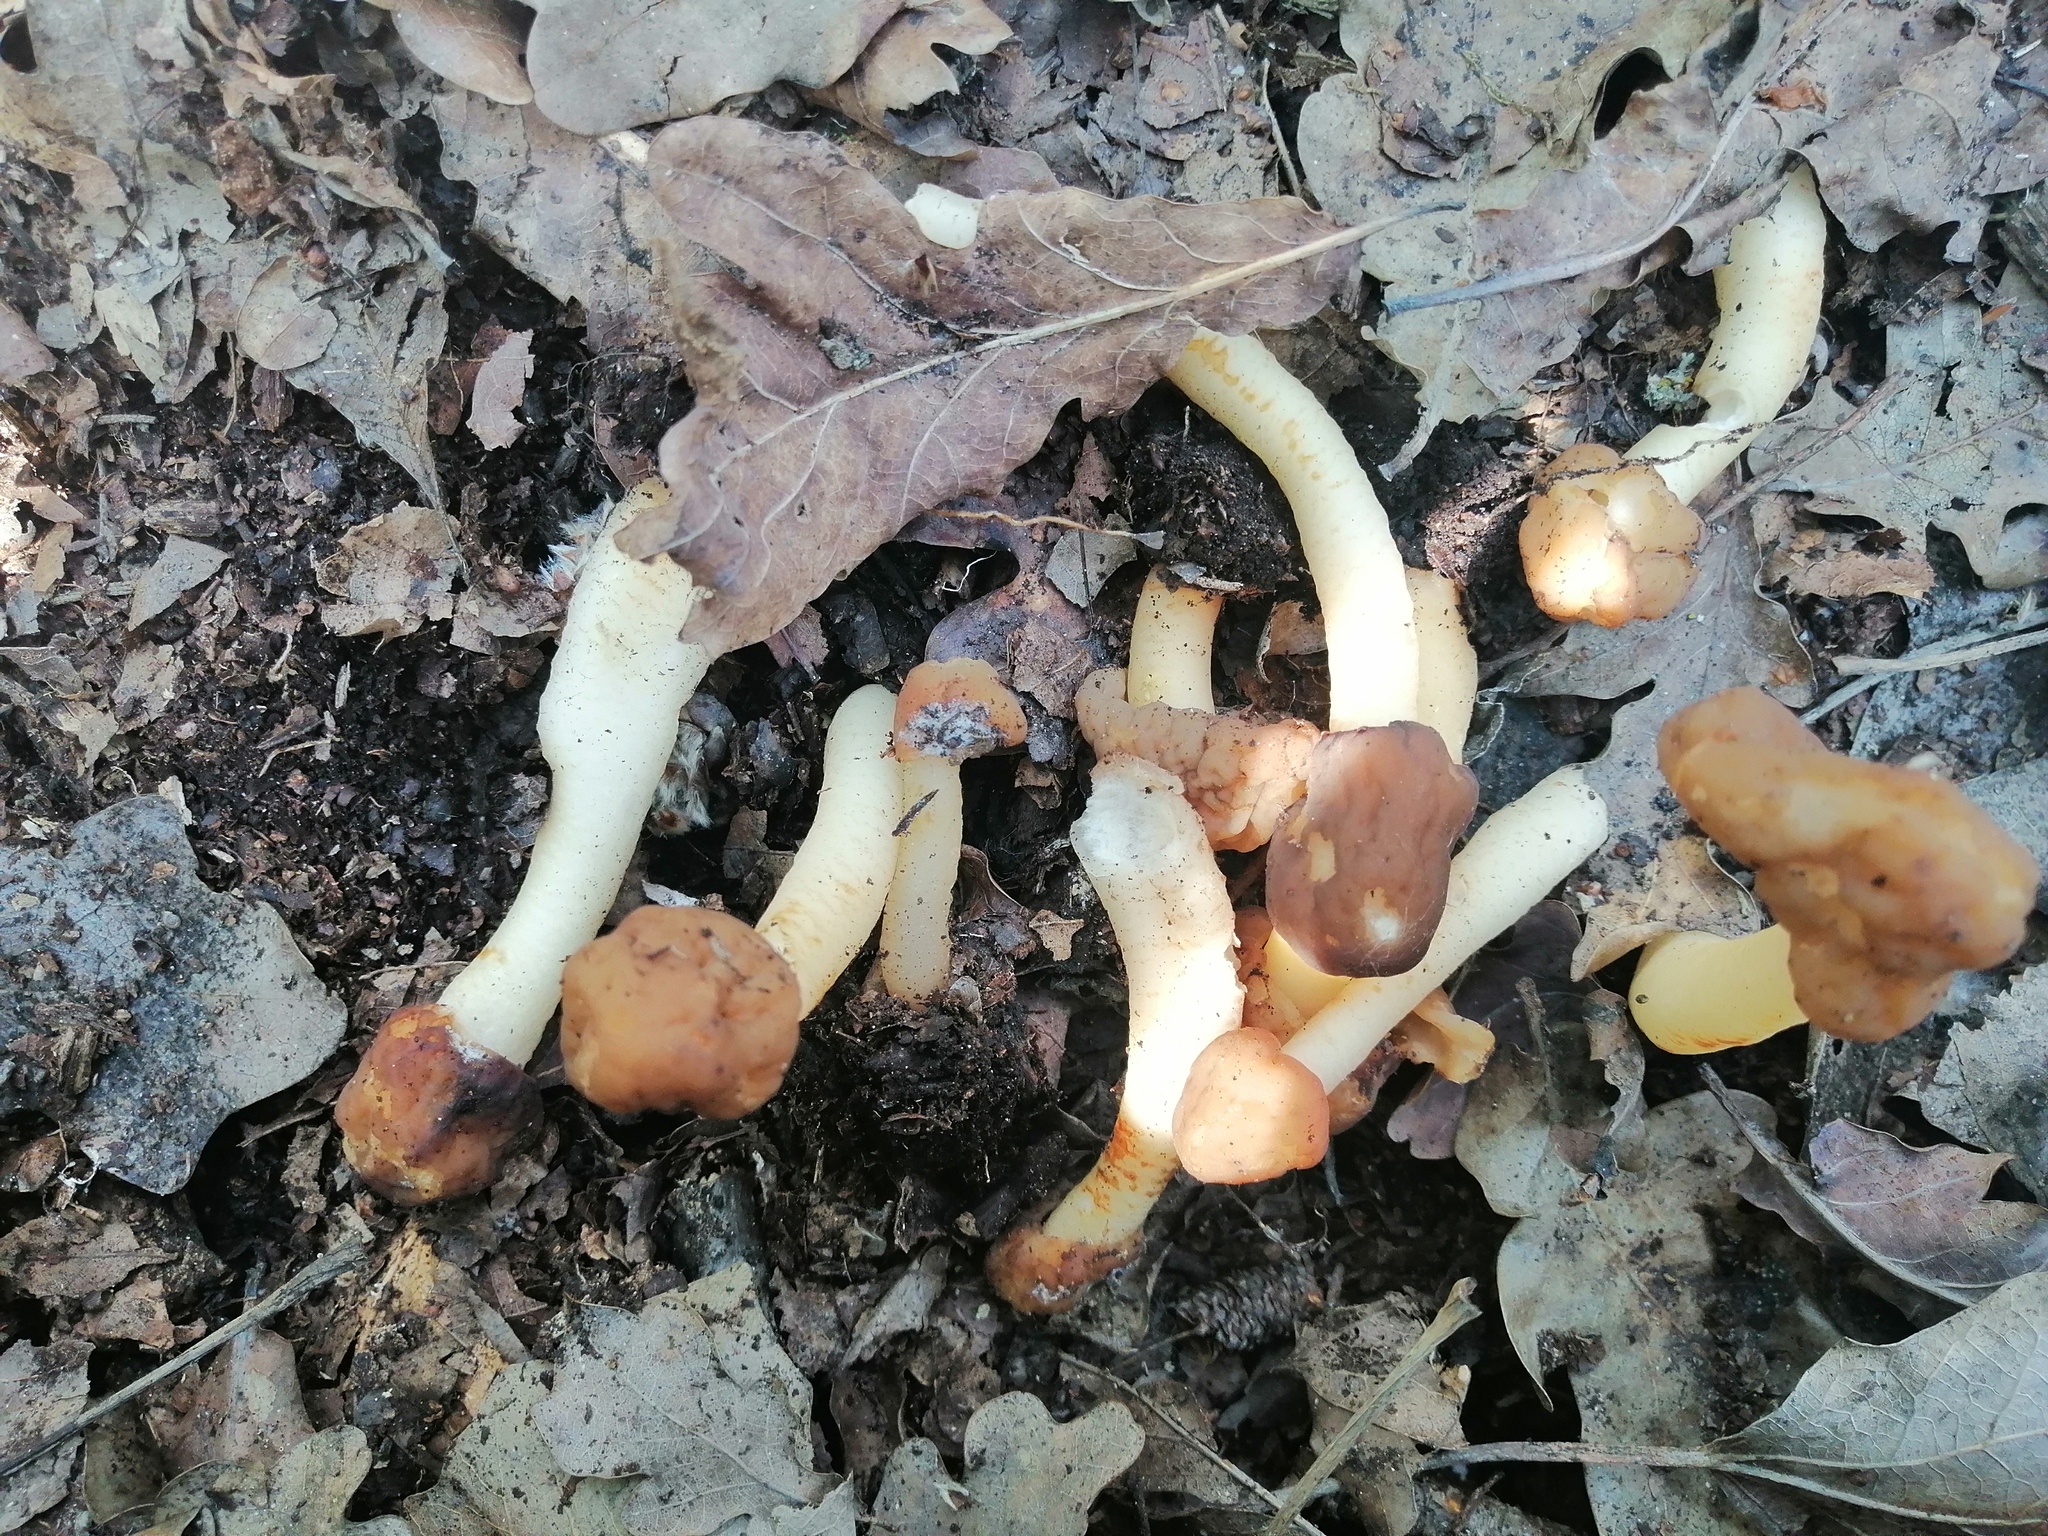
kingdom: Fungi
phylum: Ascomycota
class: Pezizomycetes
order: Pezizales
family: Morchellaceae
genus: Verpa
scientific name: Verpa conica
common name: Thimble morel
